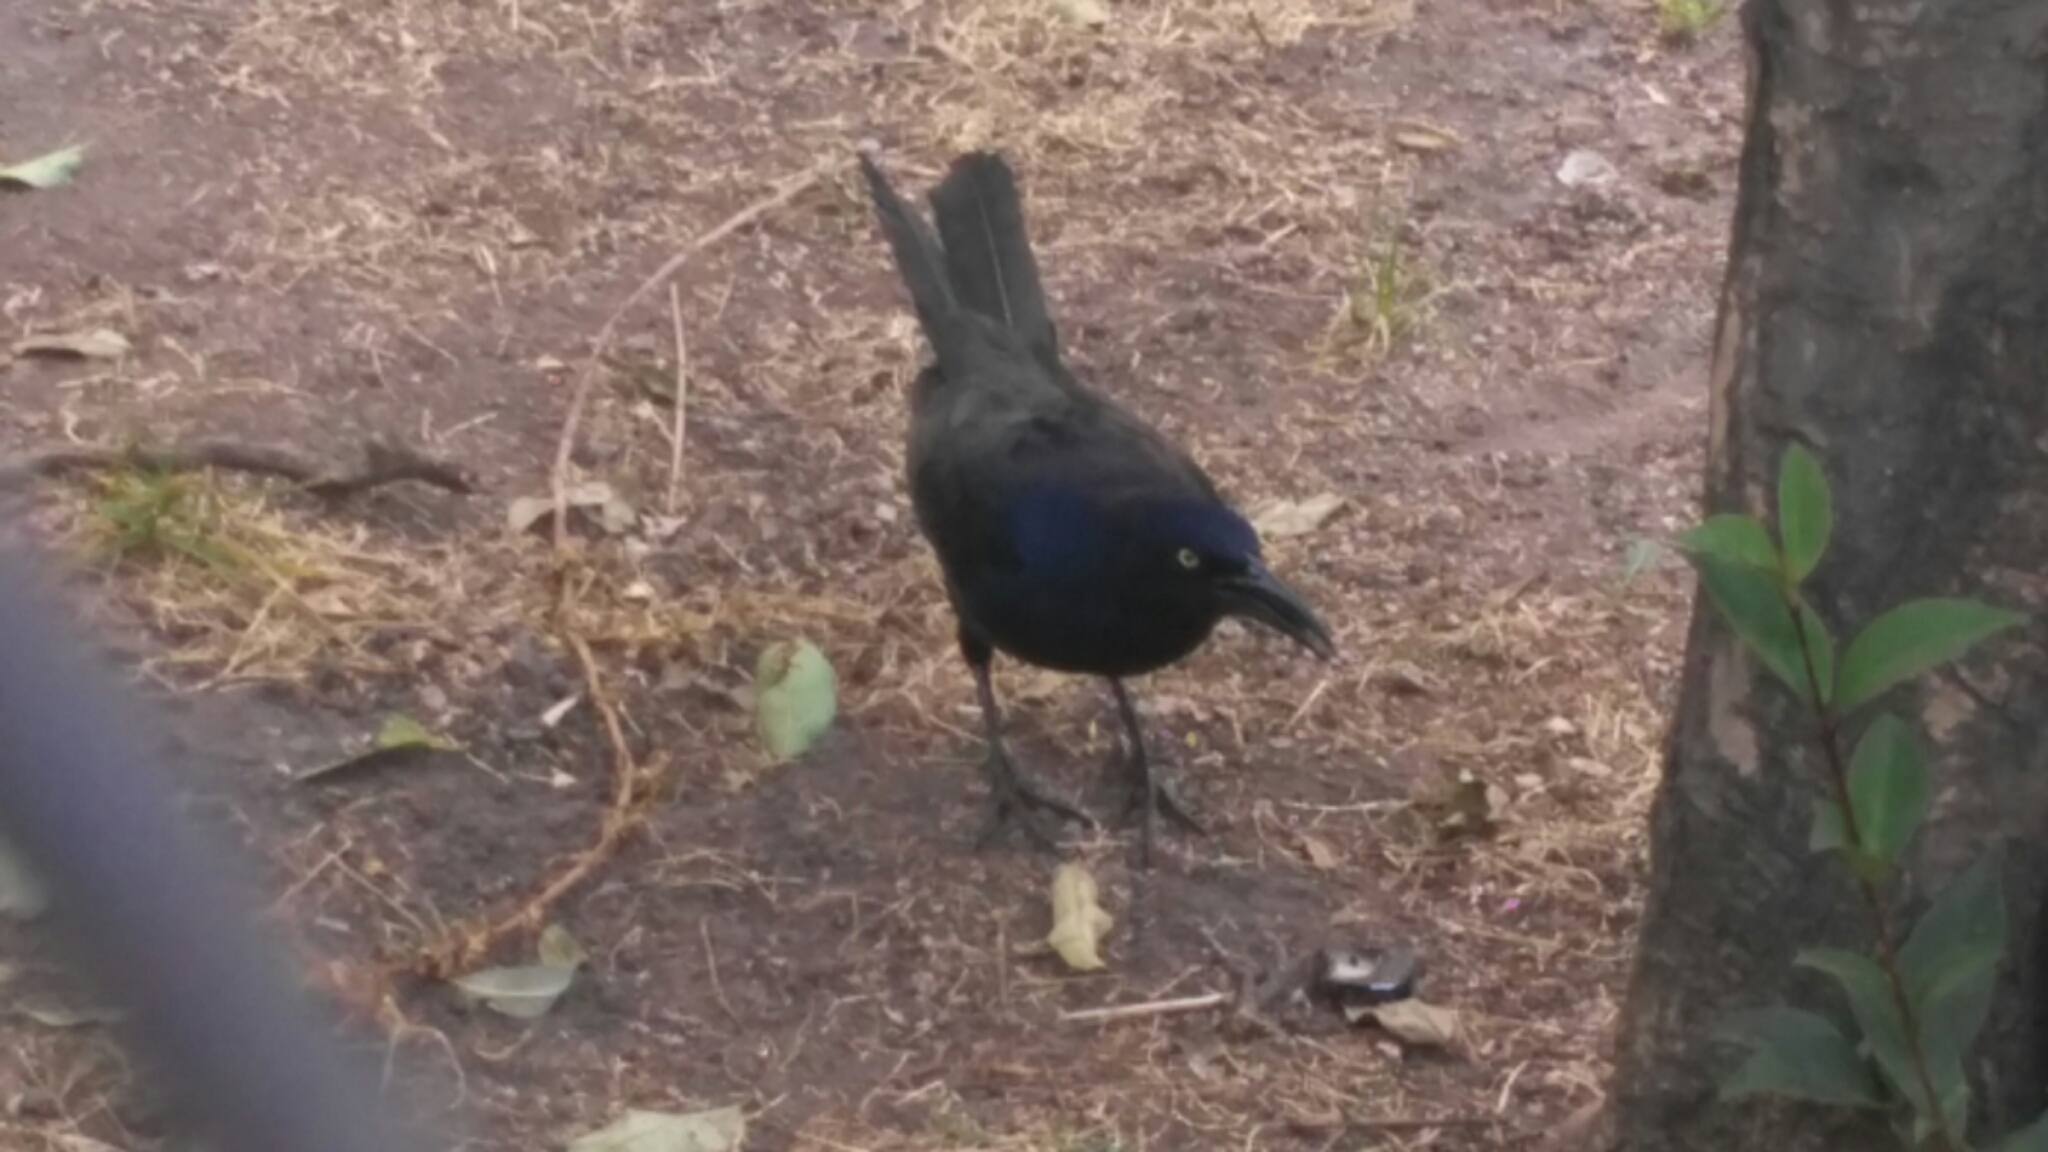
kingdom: Animalia
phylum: Chordata
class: Aves
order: Passeriformes
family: Icteridae
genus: Quiscalus
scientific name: Quiscalus mexicanus
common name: Great-tailed grackle
